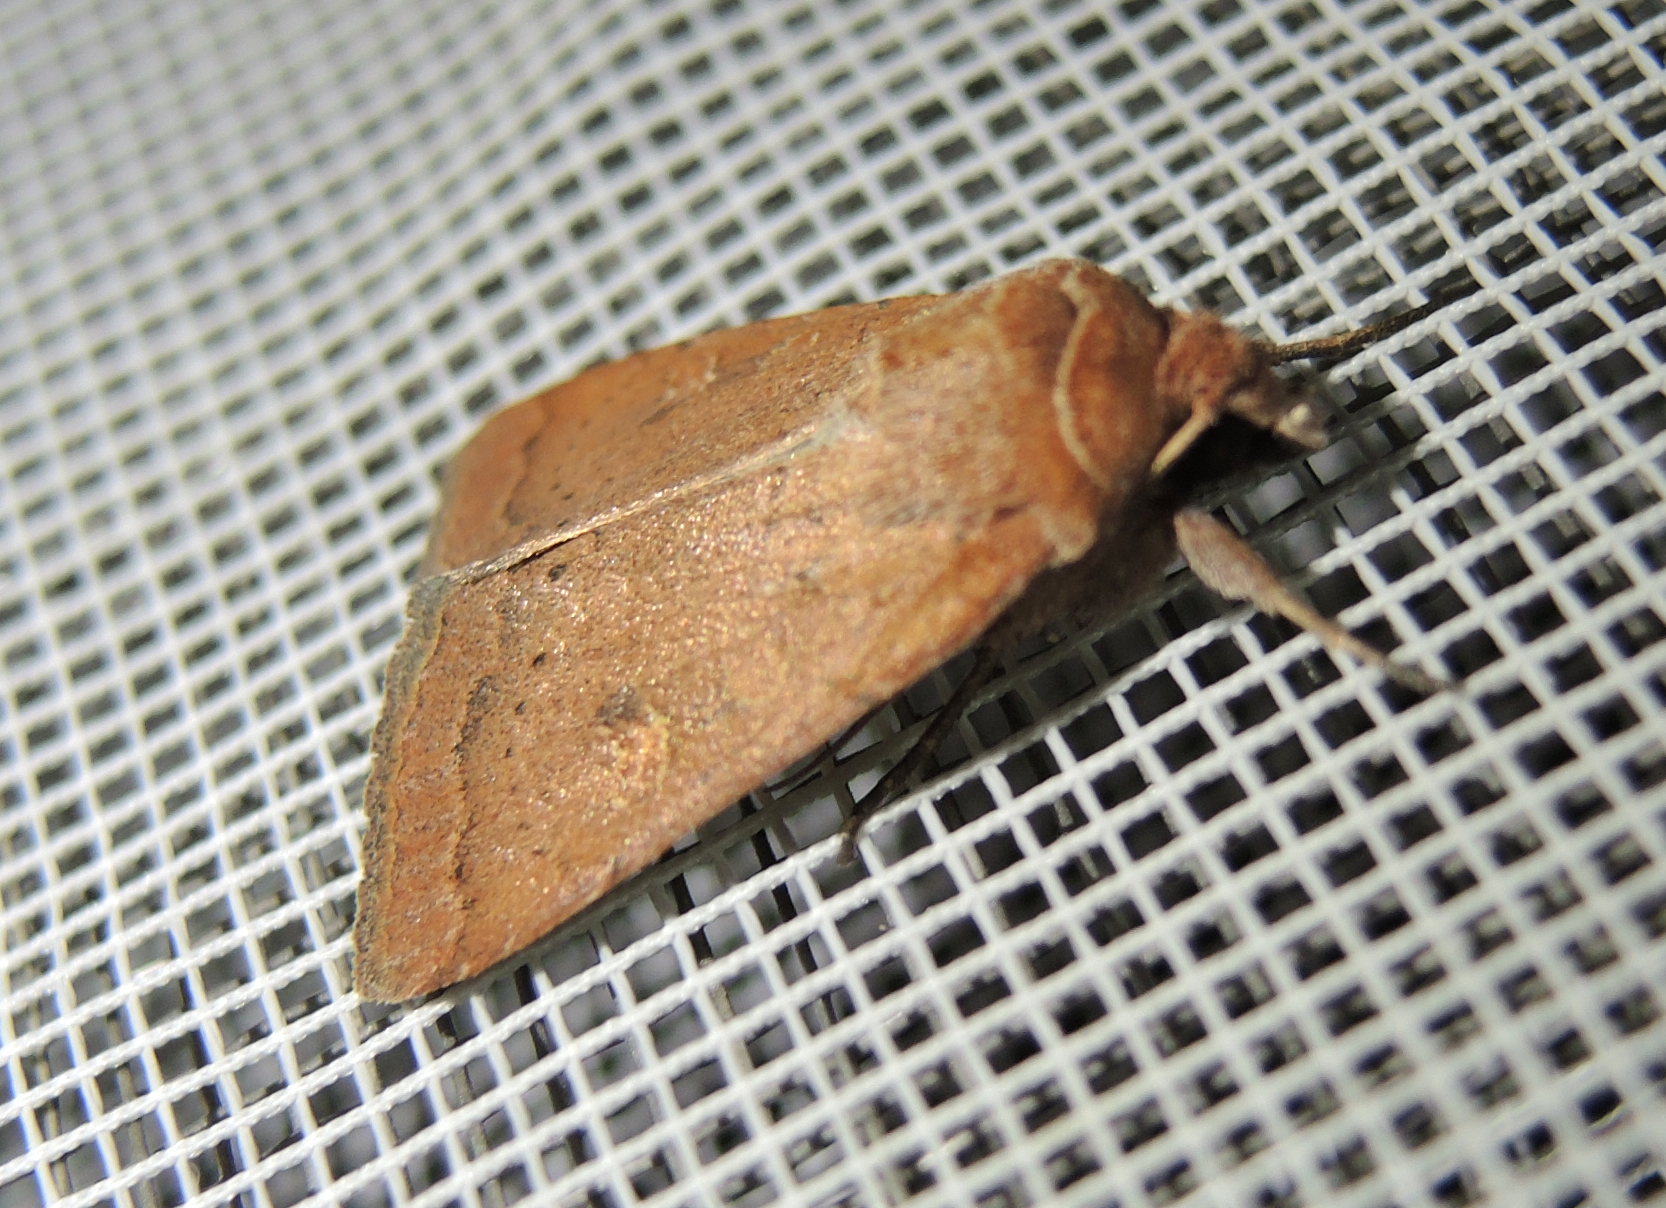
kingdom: Animalia
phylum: Arthropoda
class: Insecta
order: Lepidoptera
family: Noctuidae
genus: Xestia
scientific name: Xestia xanthographa
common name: Square-spot rustic
